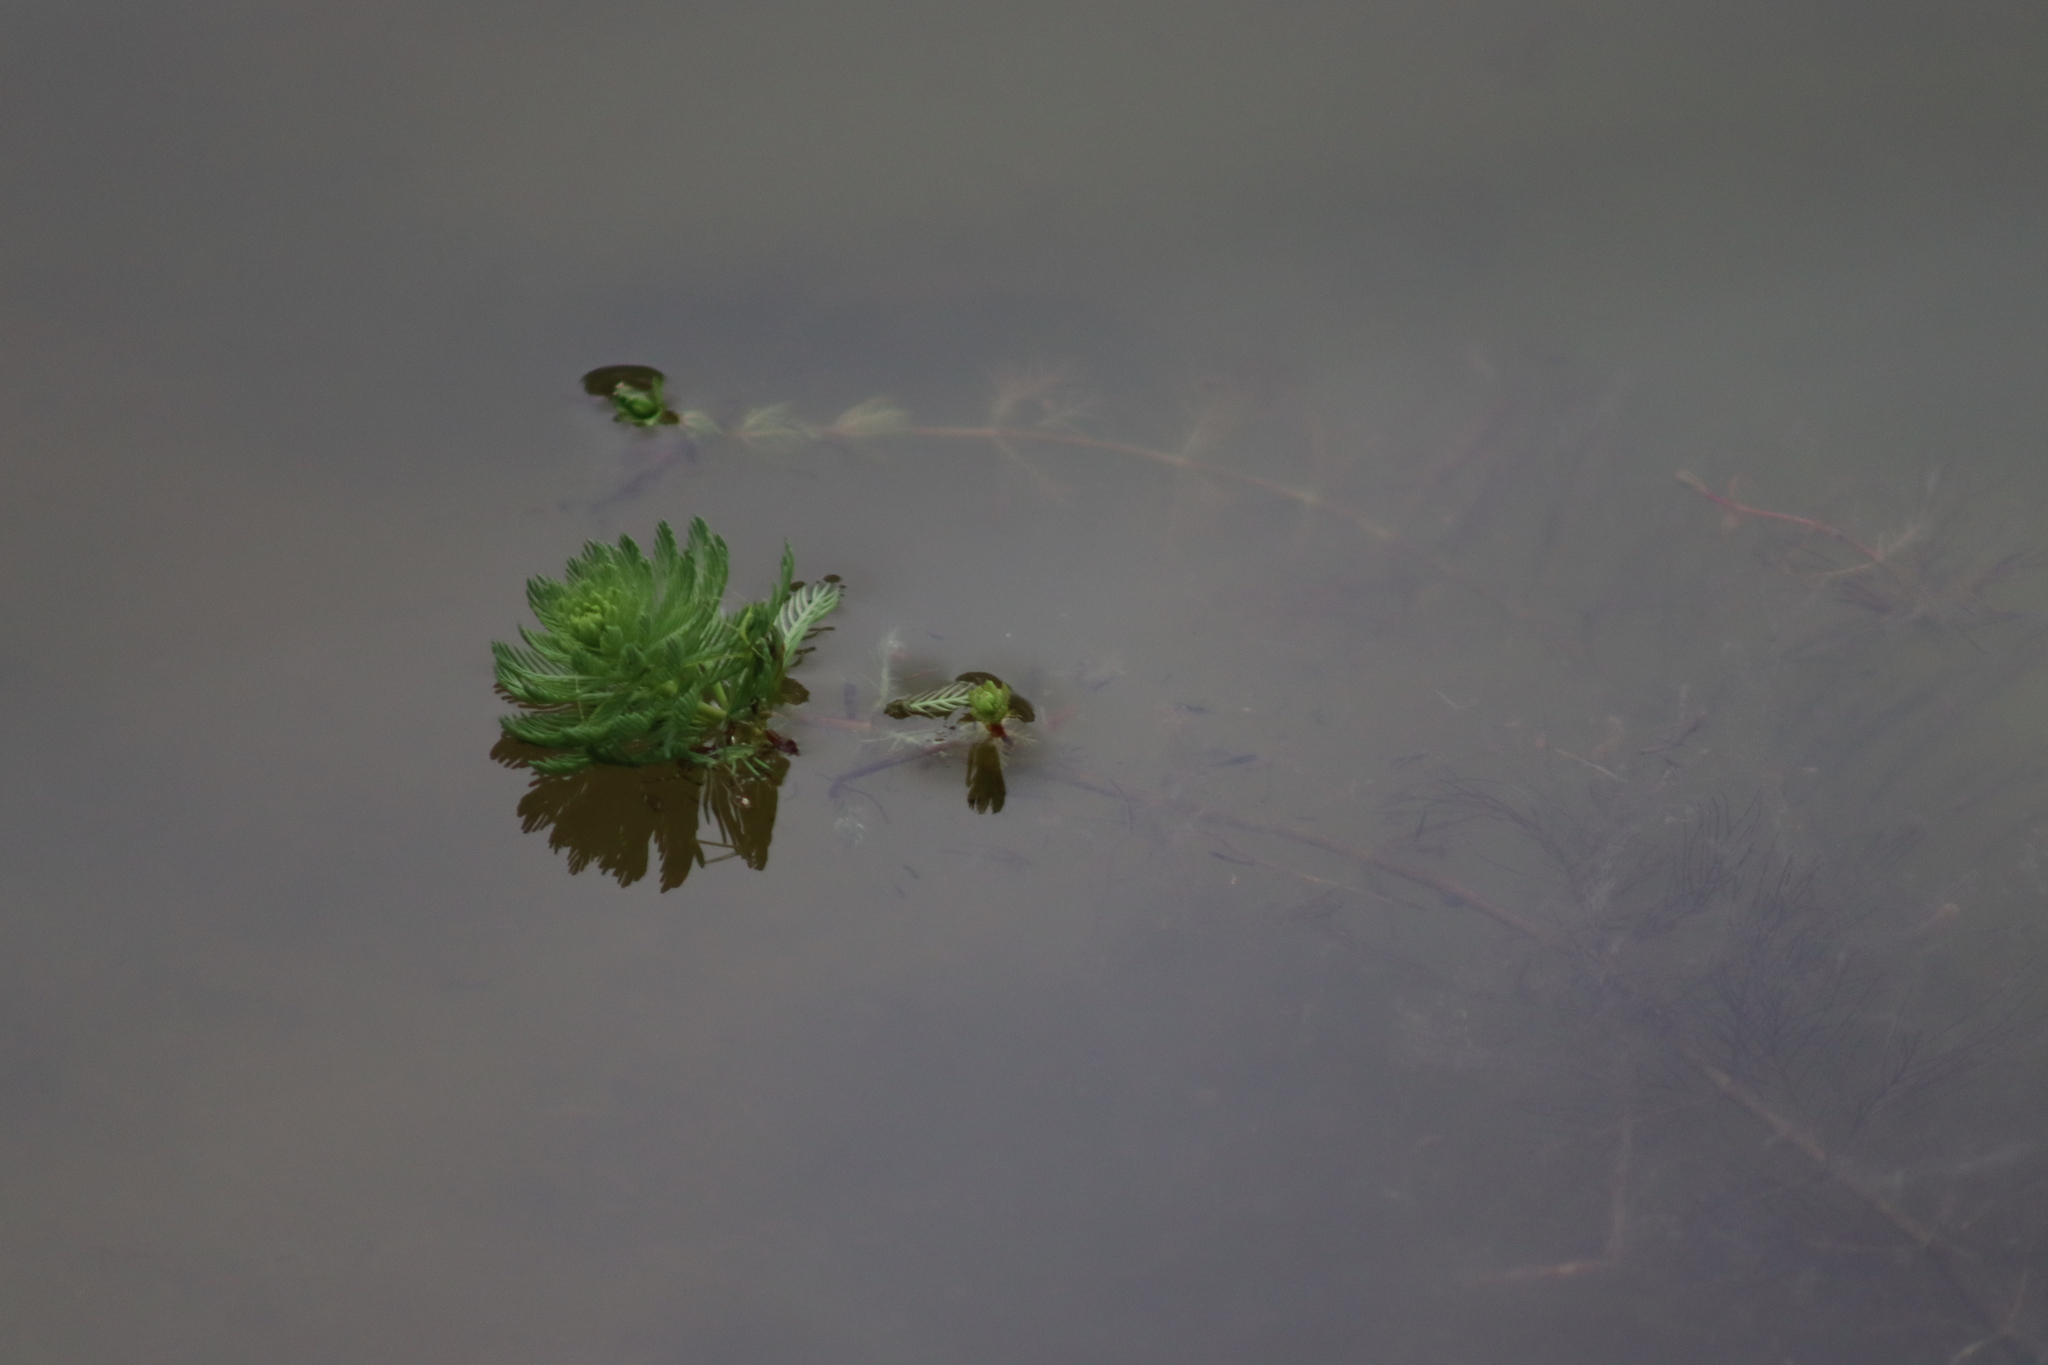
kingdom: Plantae
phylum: Tracheophyta
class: Magnoliopsida
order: Saxifragales
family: Haloragaceae
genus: Myriophyllum
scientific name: Myriophyllum aquaticum
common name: Parrot's feather
